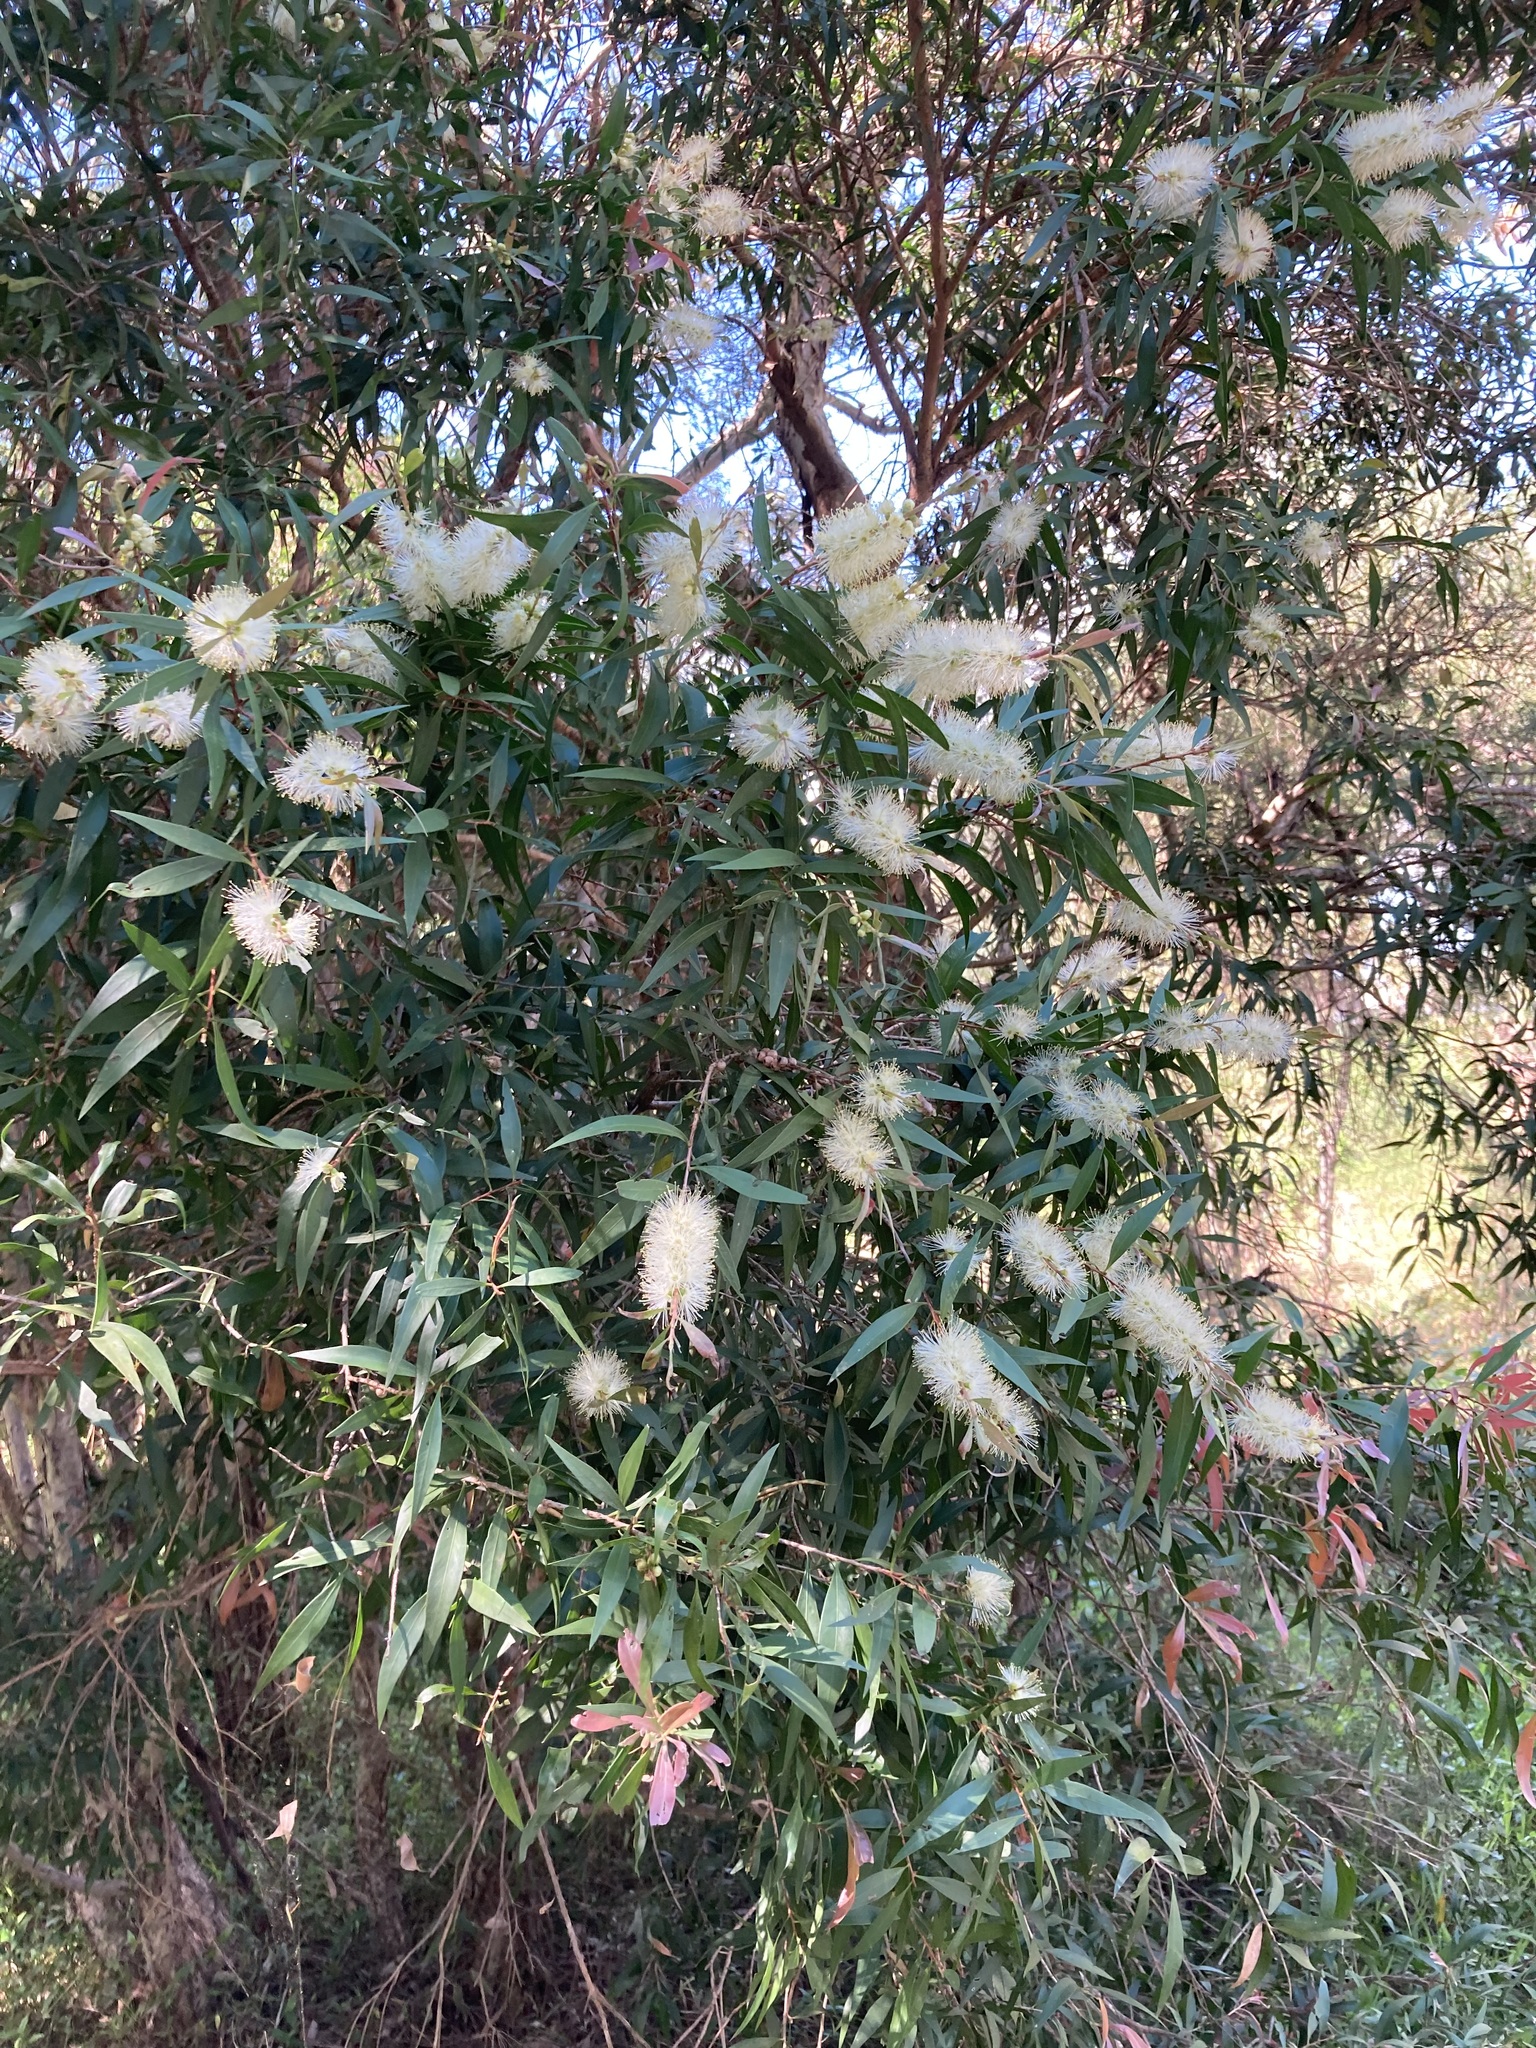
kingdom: Plantae
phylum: Tracheophyta
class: Magnoliopsida
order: Myrtales
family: Myrtaceae
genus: Callistemon
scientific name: Callistemon salignus
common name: White bottlebrush
